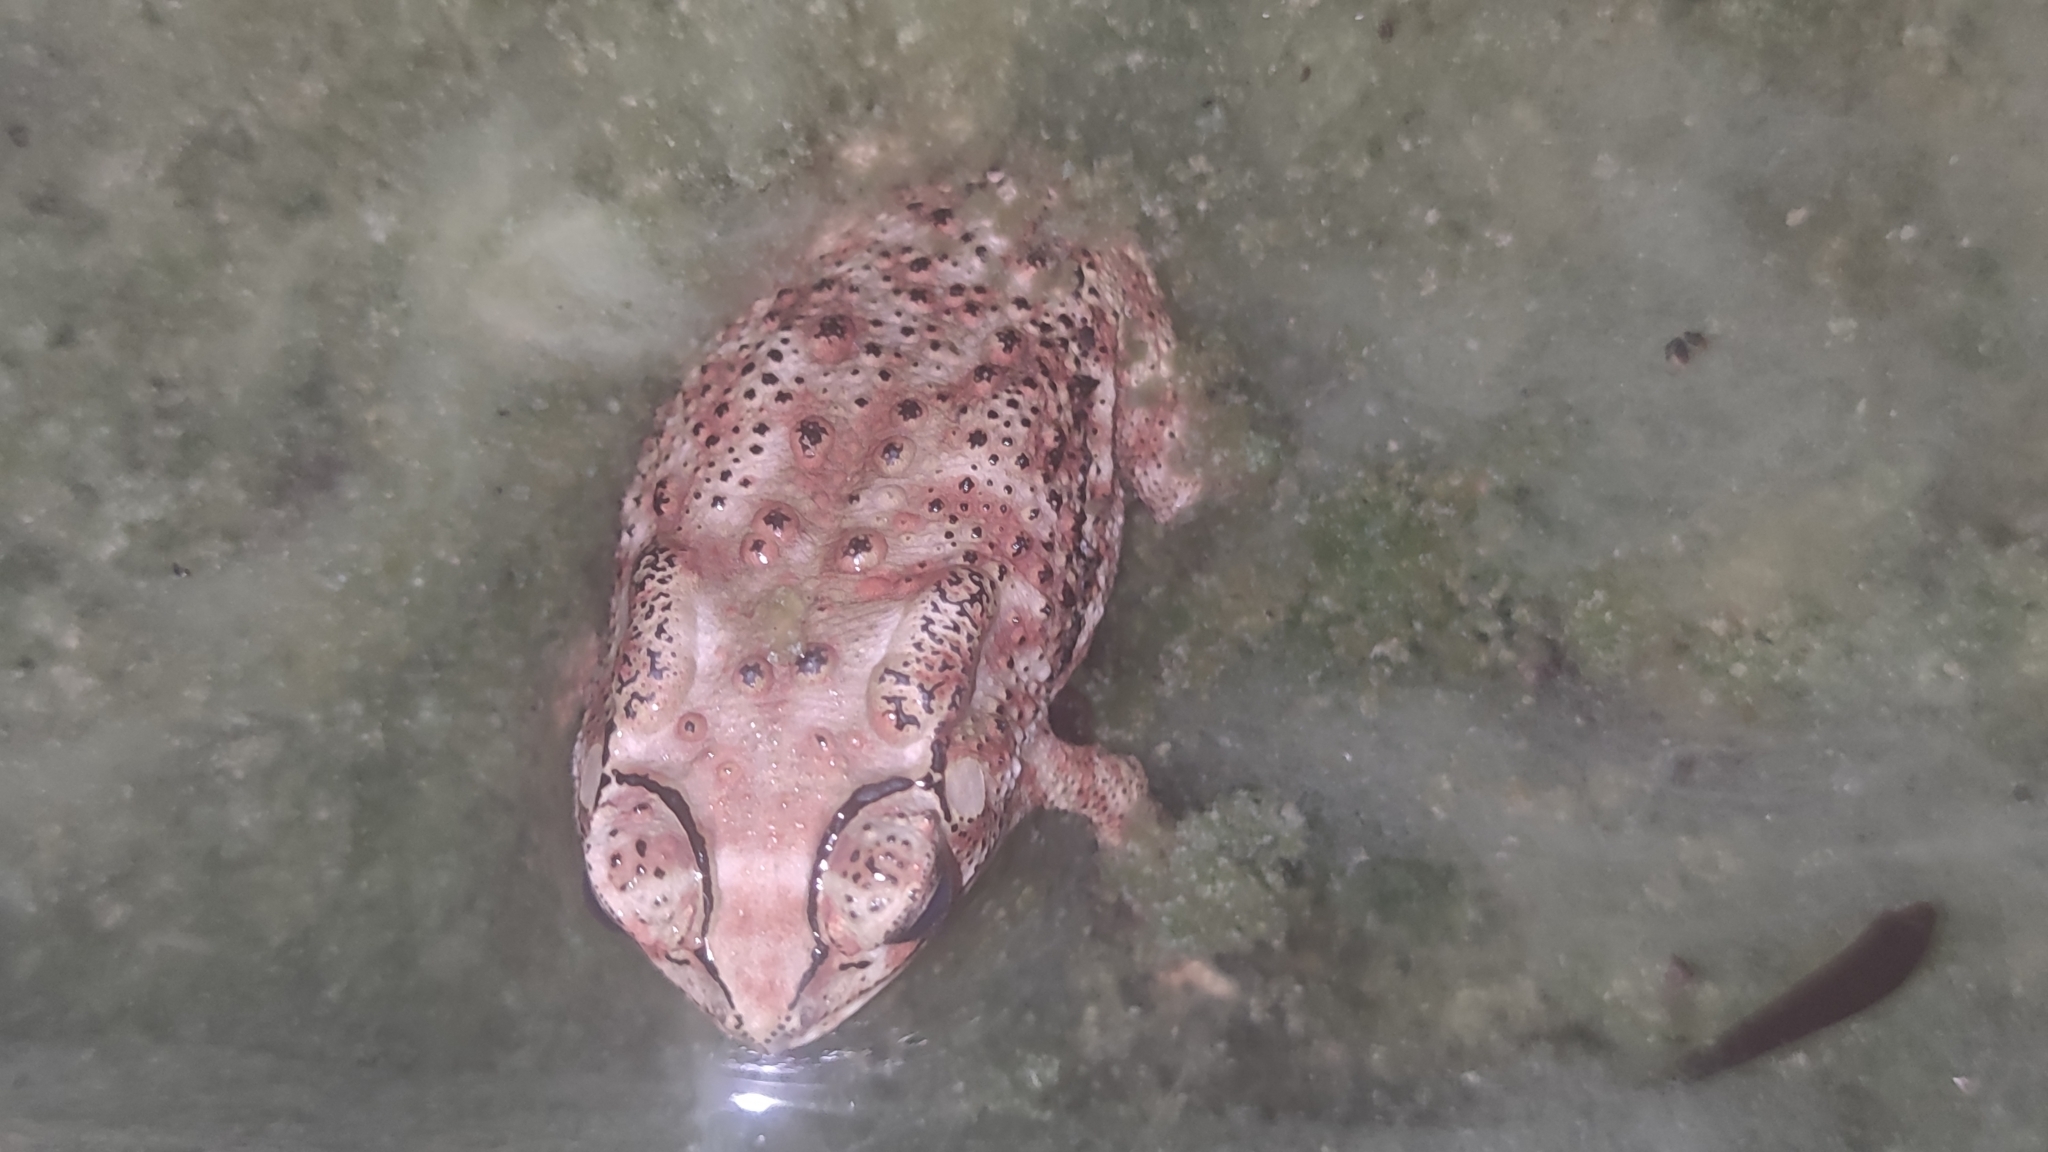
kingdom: Animalia
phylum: Chordata
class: Amphibia
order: Anura
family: Bufonidae
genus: Duttaphrynus
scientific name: Duttaphrynus melanostictus
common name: Common sunda toad
